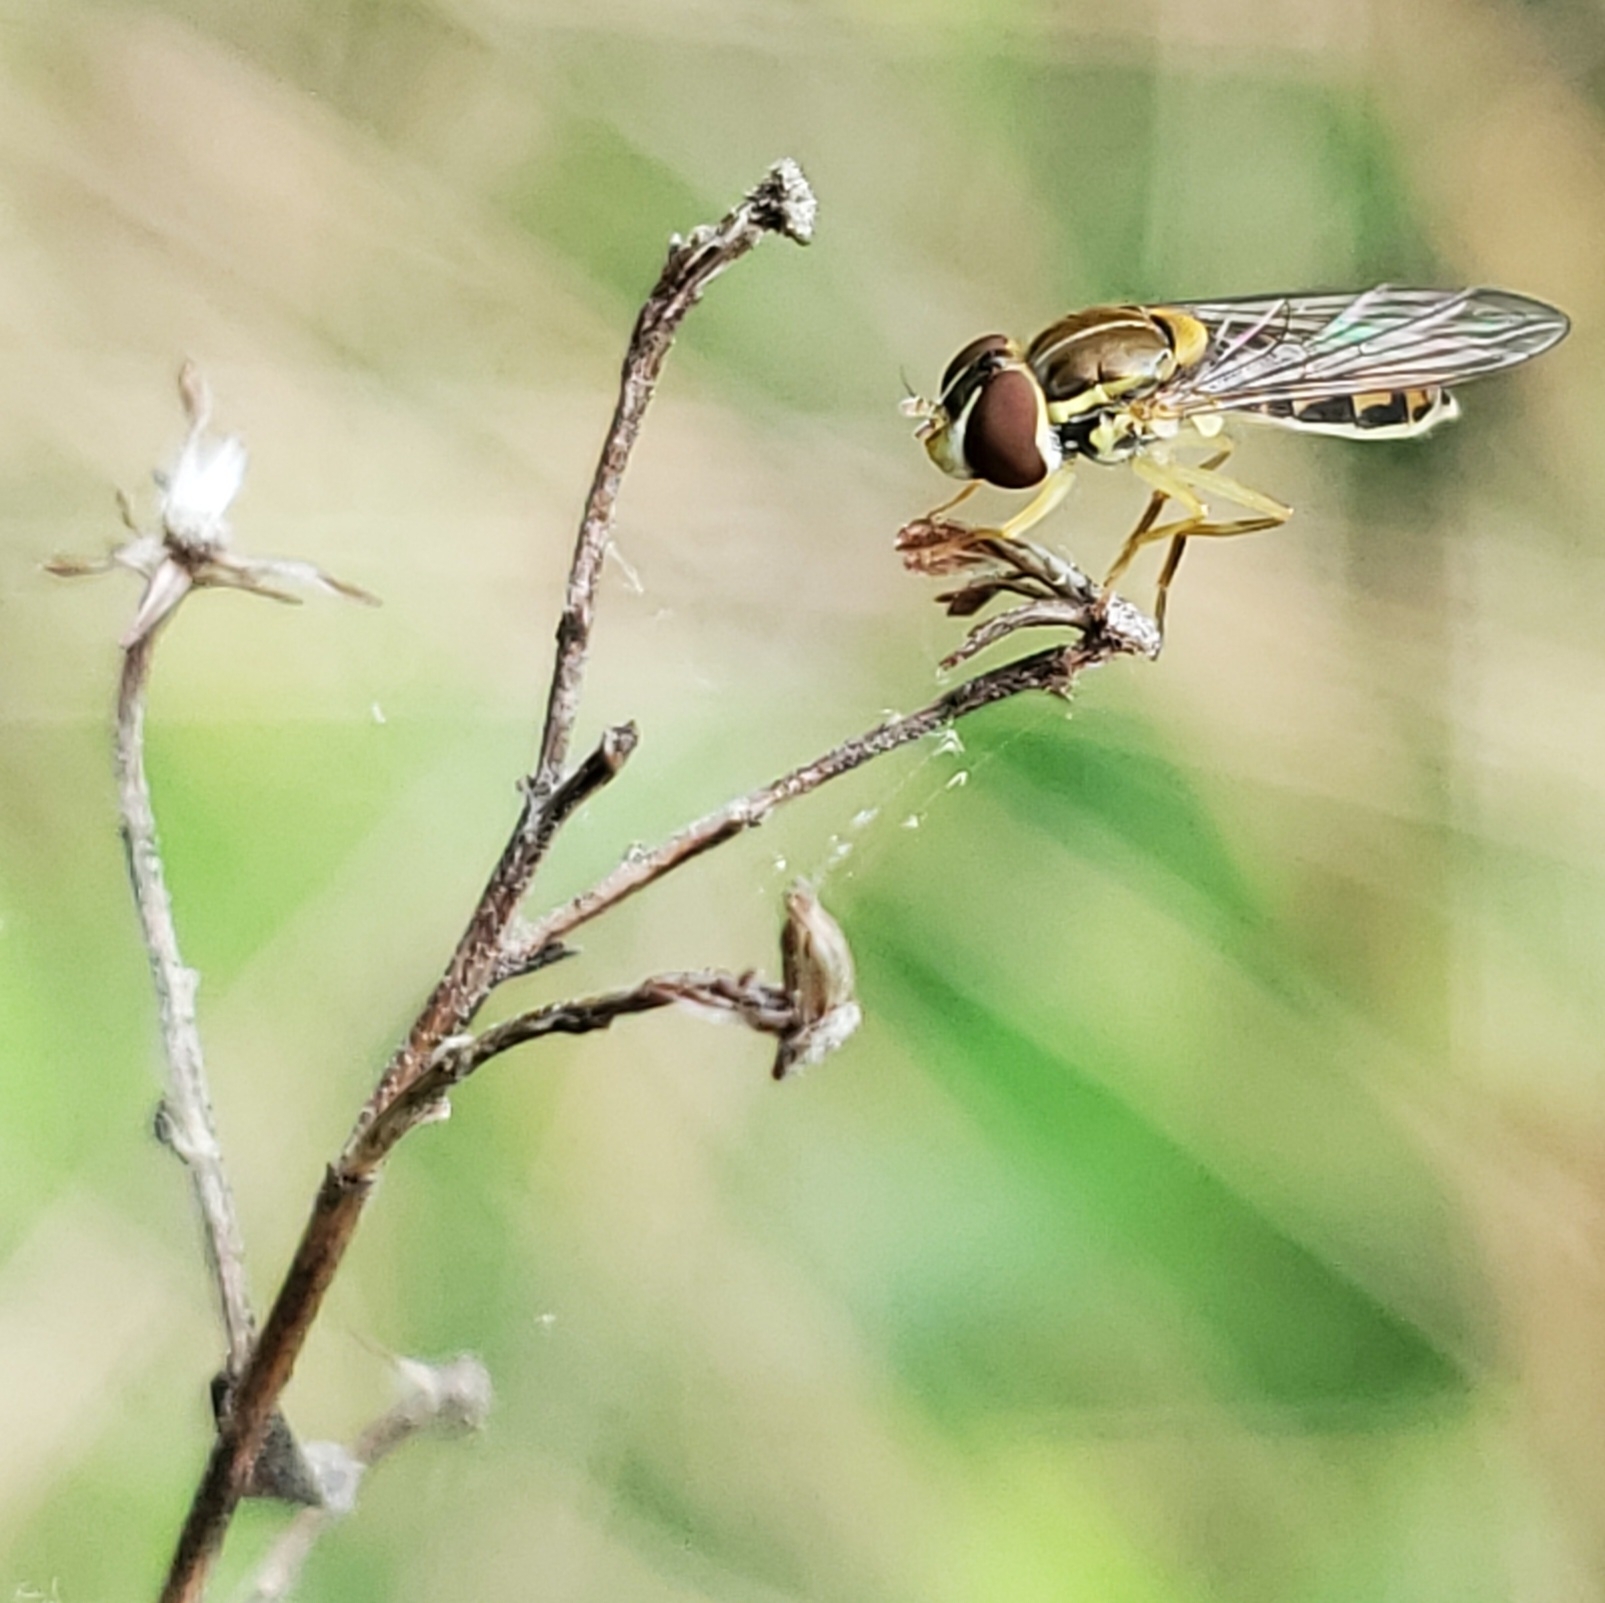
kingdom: Animalia
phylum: Arthropoda
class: Insecta
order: Diptera
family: Syrphidae
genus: Toxomerus
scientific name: Toxomerus marginatus
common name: Syrphid fly
